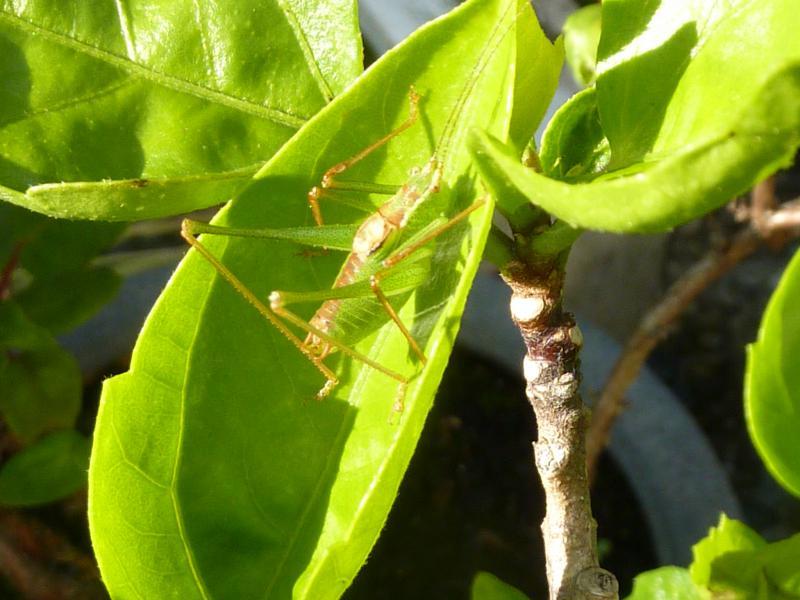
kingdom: Animalia
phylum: Arthropoda
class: Insecta
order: Orthoptera
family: Tettigoniidae
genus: Leptophyes
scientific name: Leptophyes punctatissima
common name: Speckled bush-cricket
